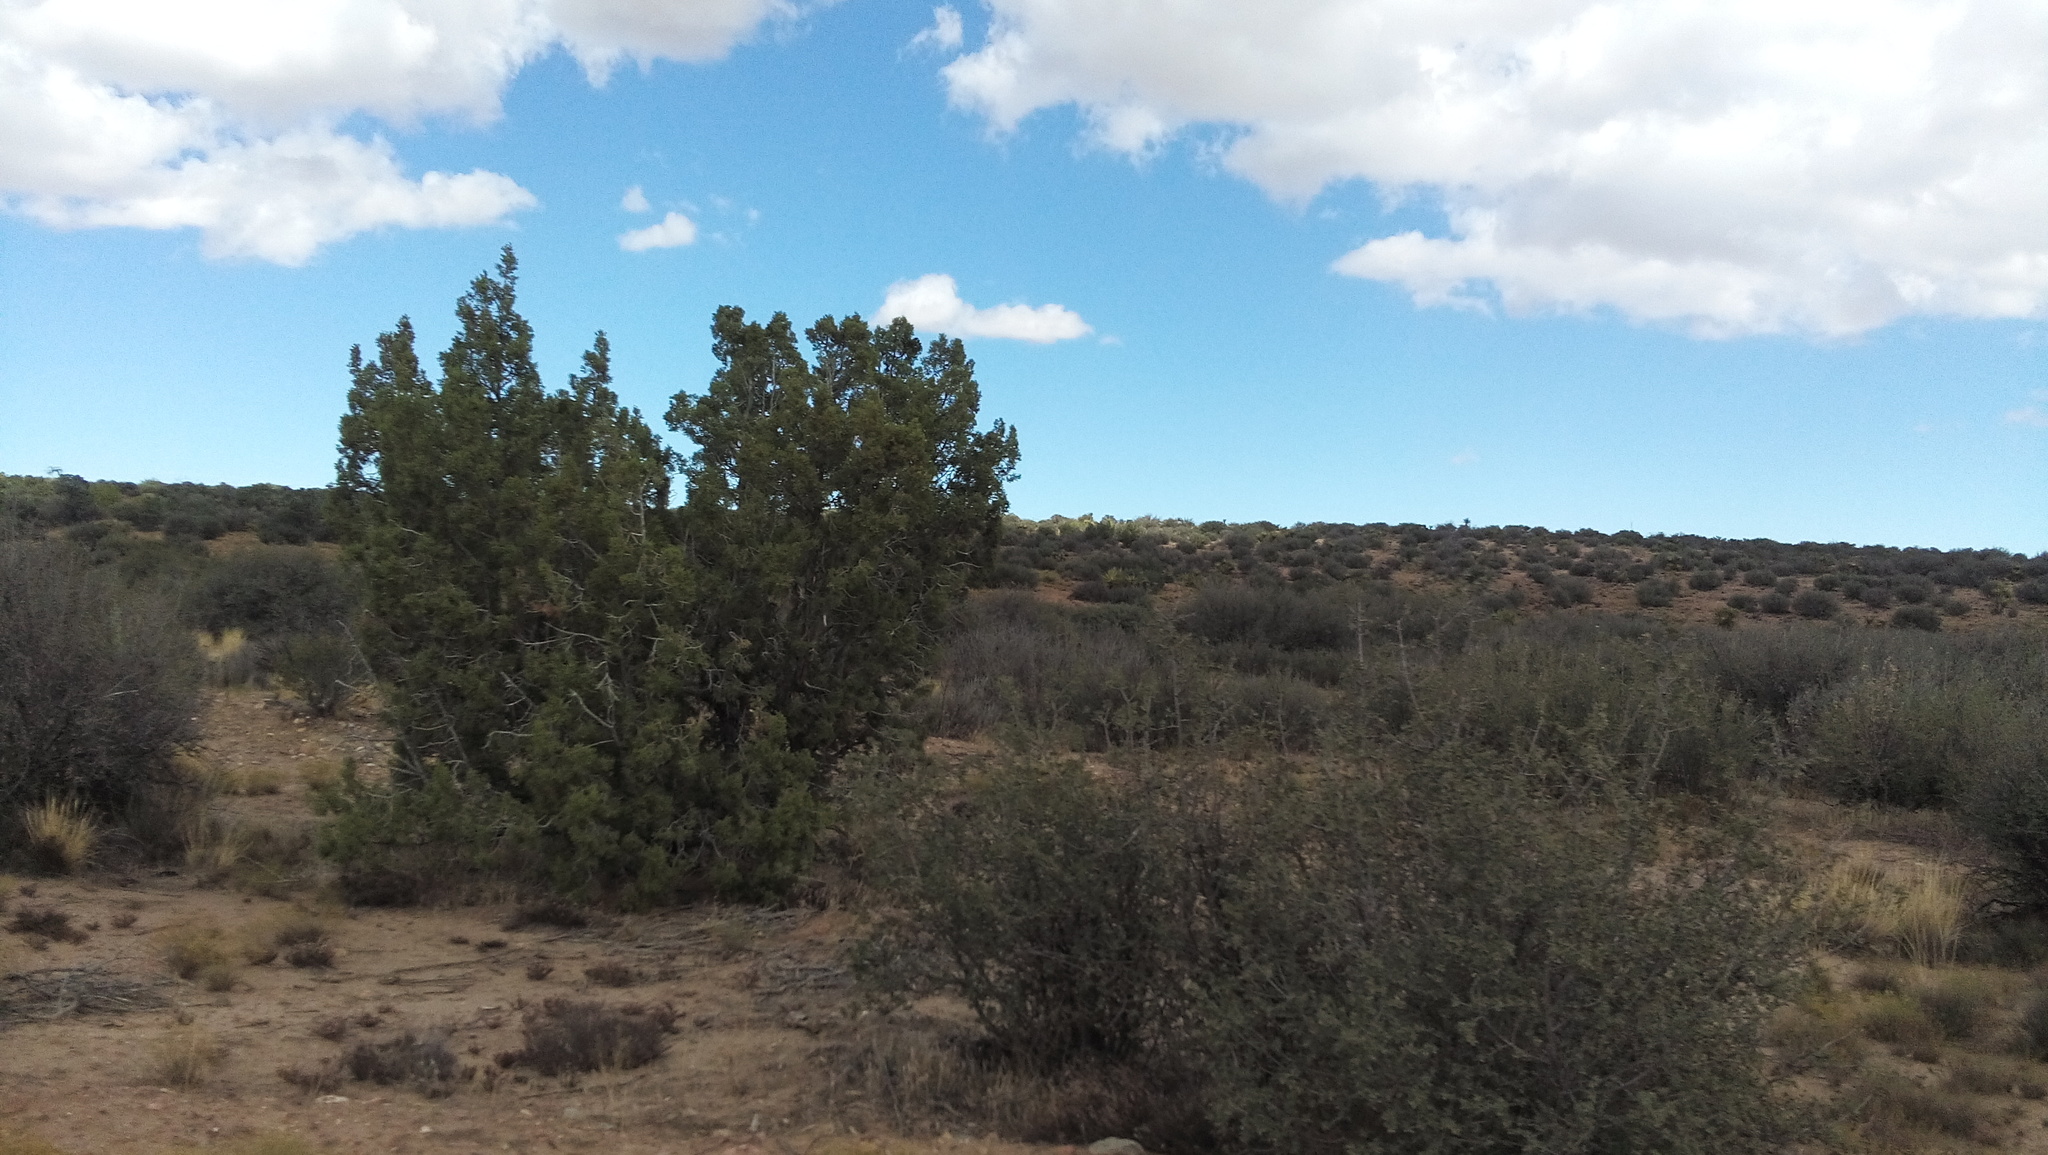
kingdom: Plantae
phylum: Tracheophyta
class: Pinopsida
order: Pinales
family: Cupressaceae
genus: Juniperus
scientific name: Juniperus californica
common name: California juniper
